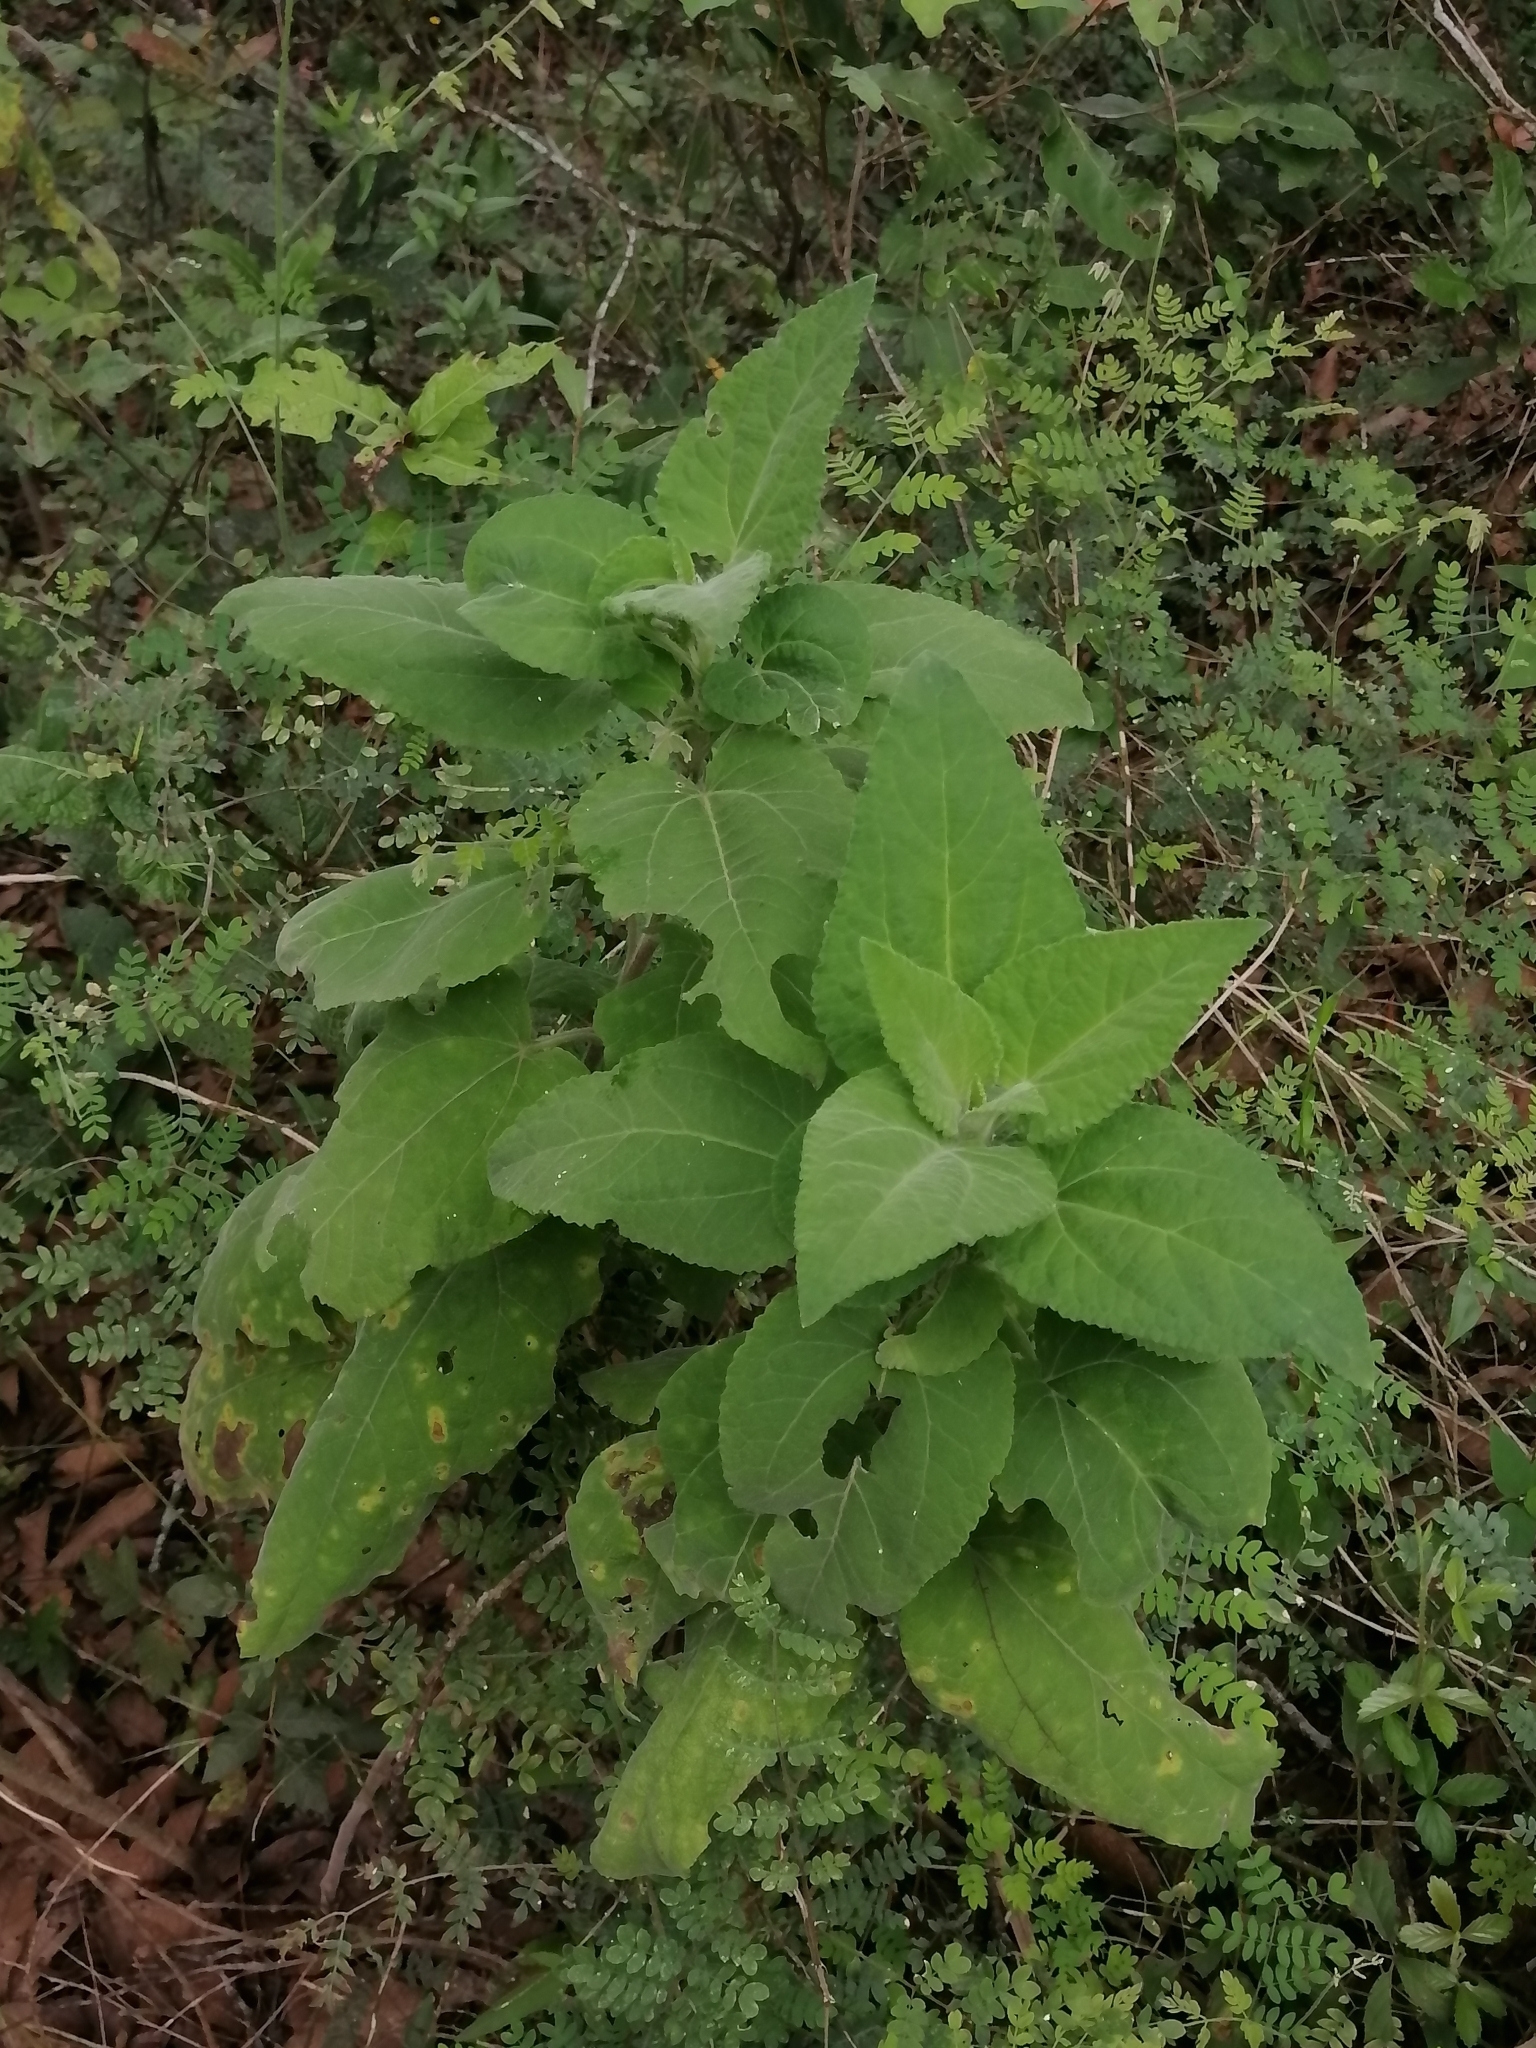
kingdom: Plantae
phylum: Tracheophyta
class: Magnoliopsida
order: Asterales
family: Asteraceae
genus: Vigethia
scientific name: Vigethia mexicana
